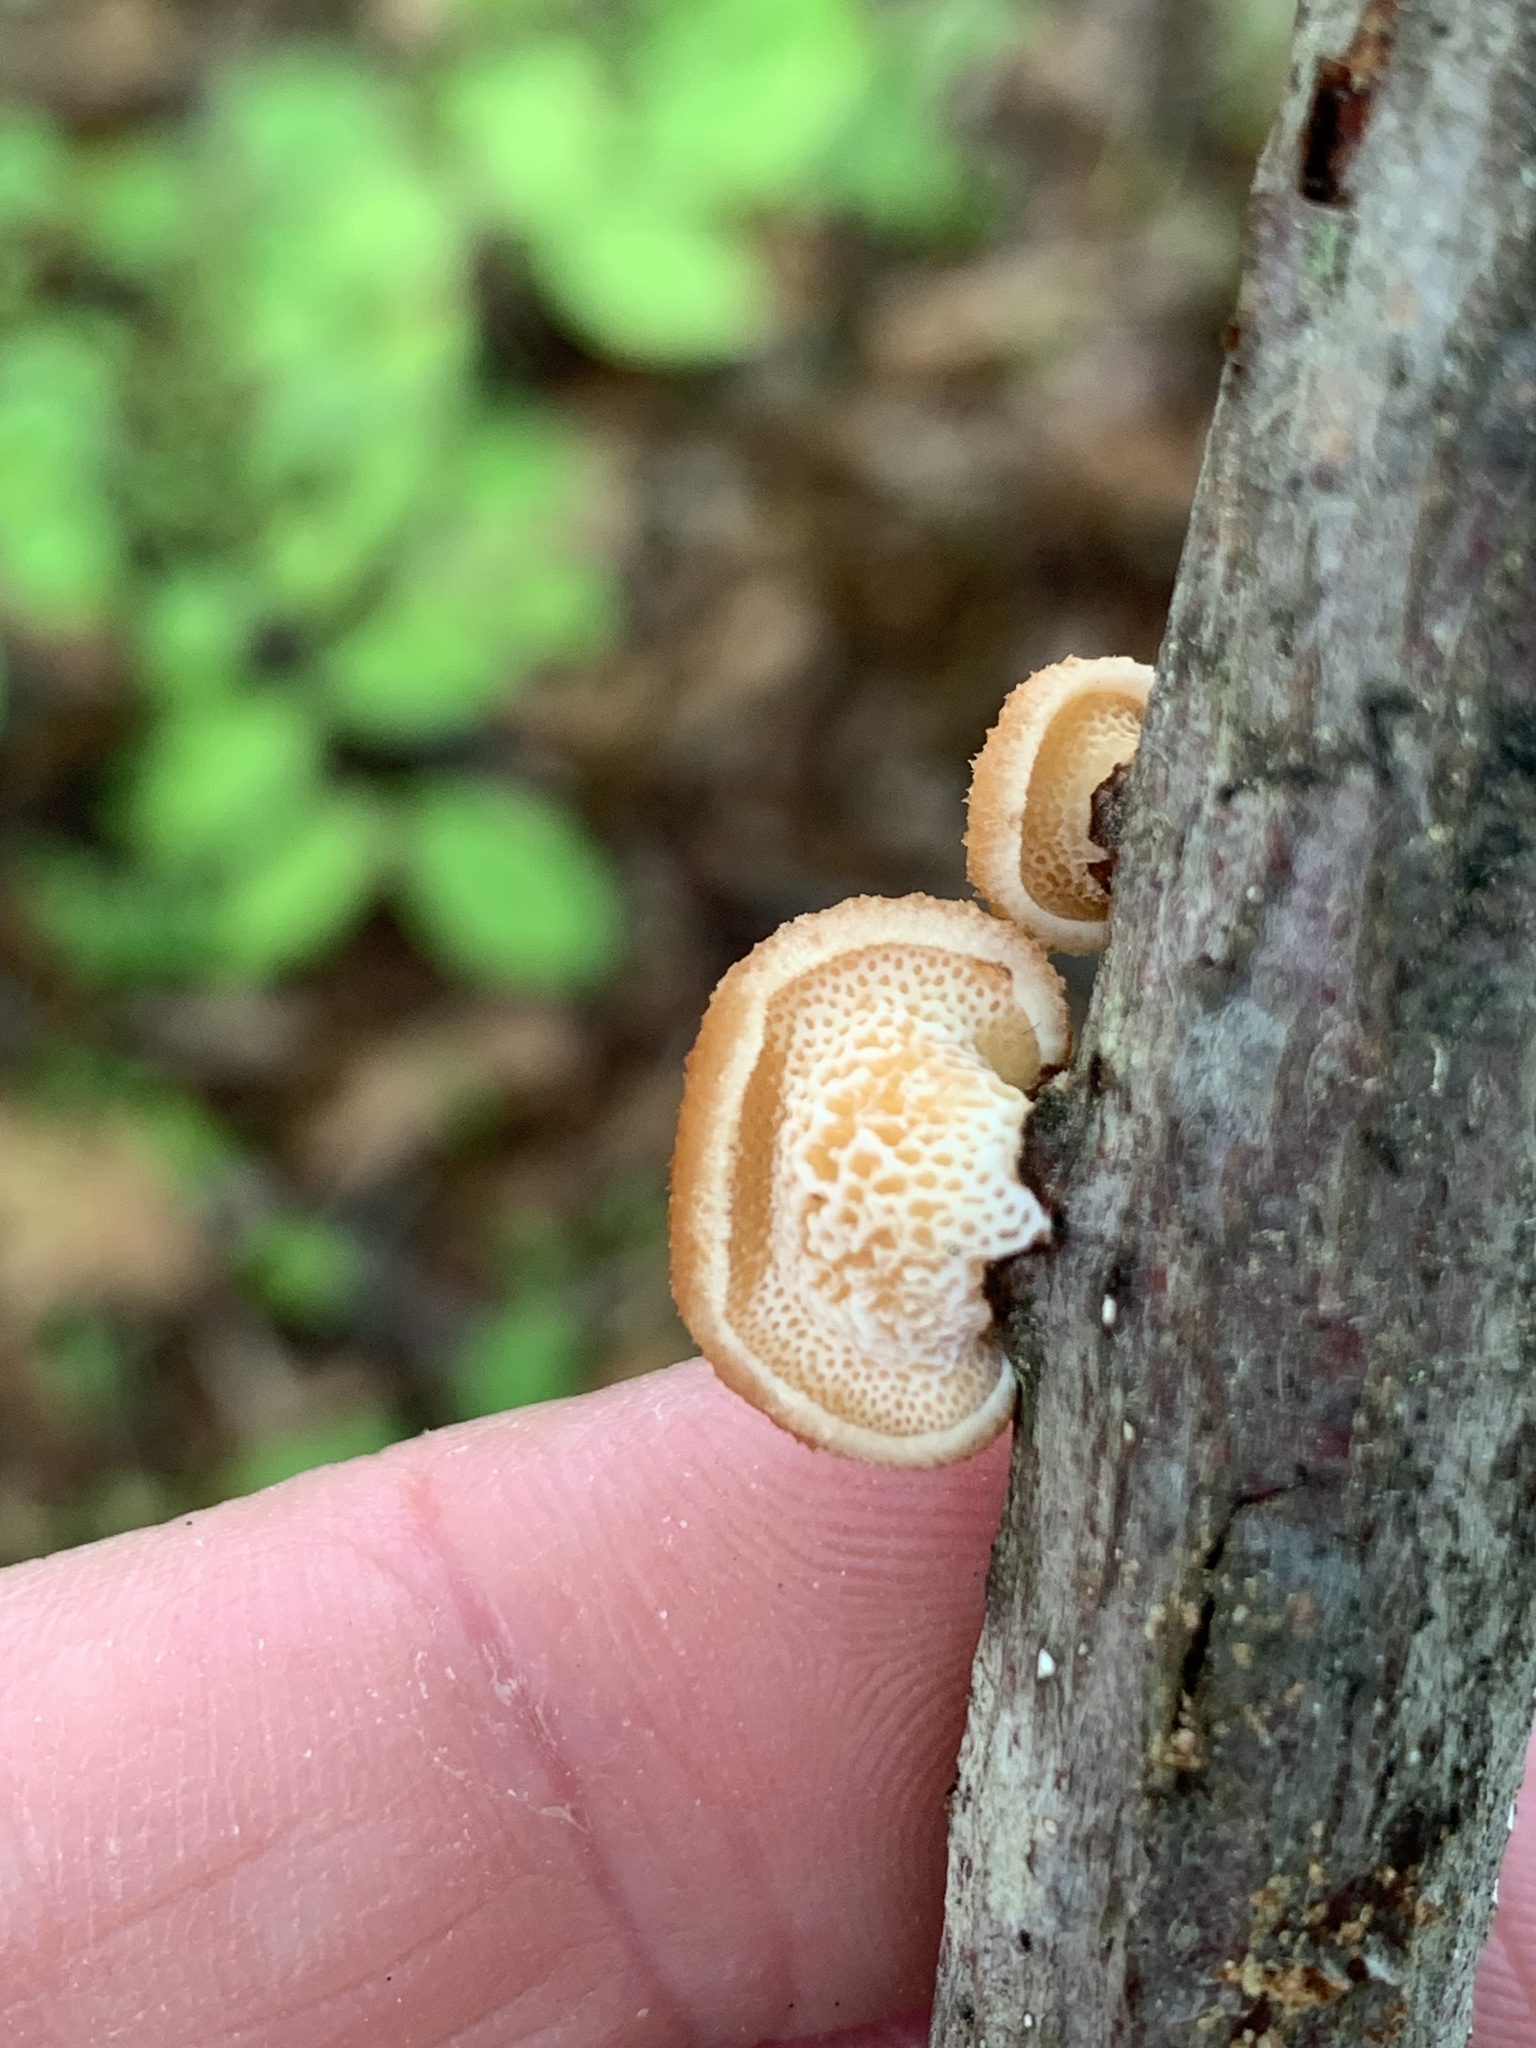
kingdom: Fungi
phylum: Basidiomycota
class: Agaricomycetes
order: Polyporales
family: Polyporaceae
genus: Neofavolus
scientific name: Neofavolus alveolaris
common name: Hexagonal-pored polypore
